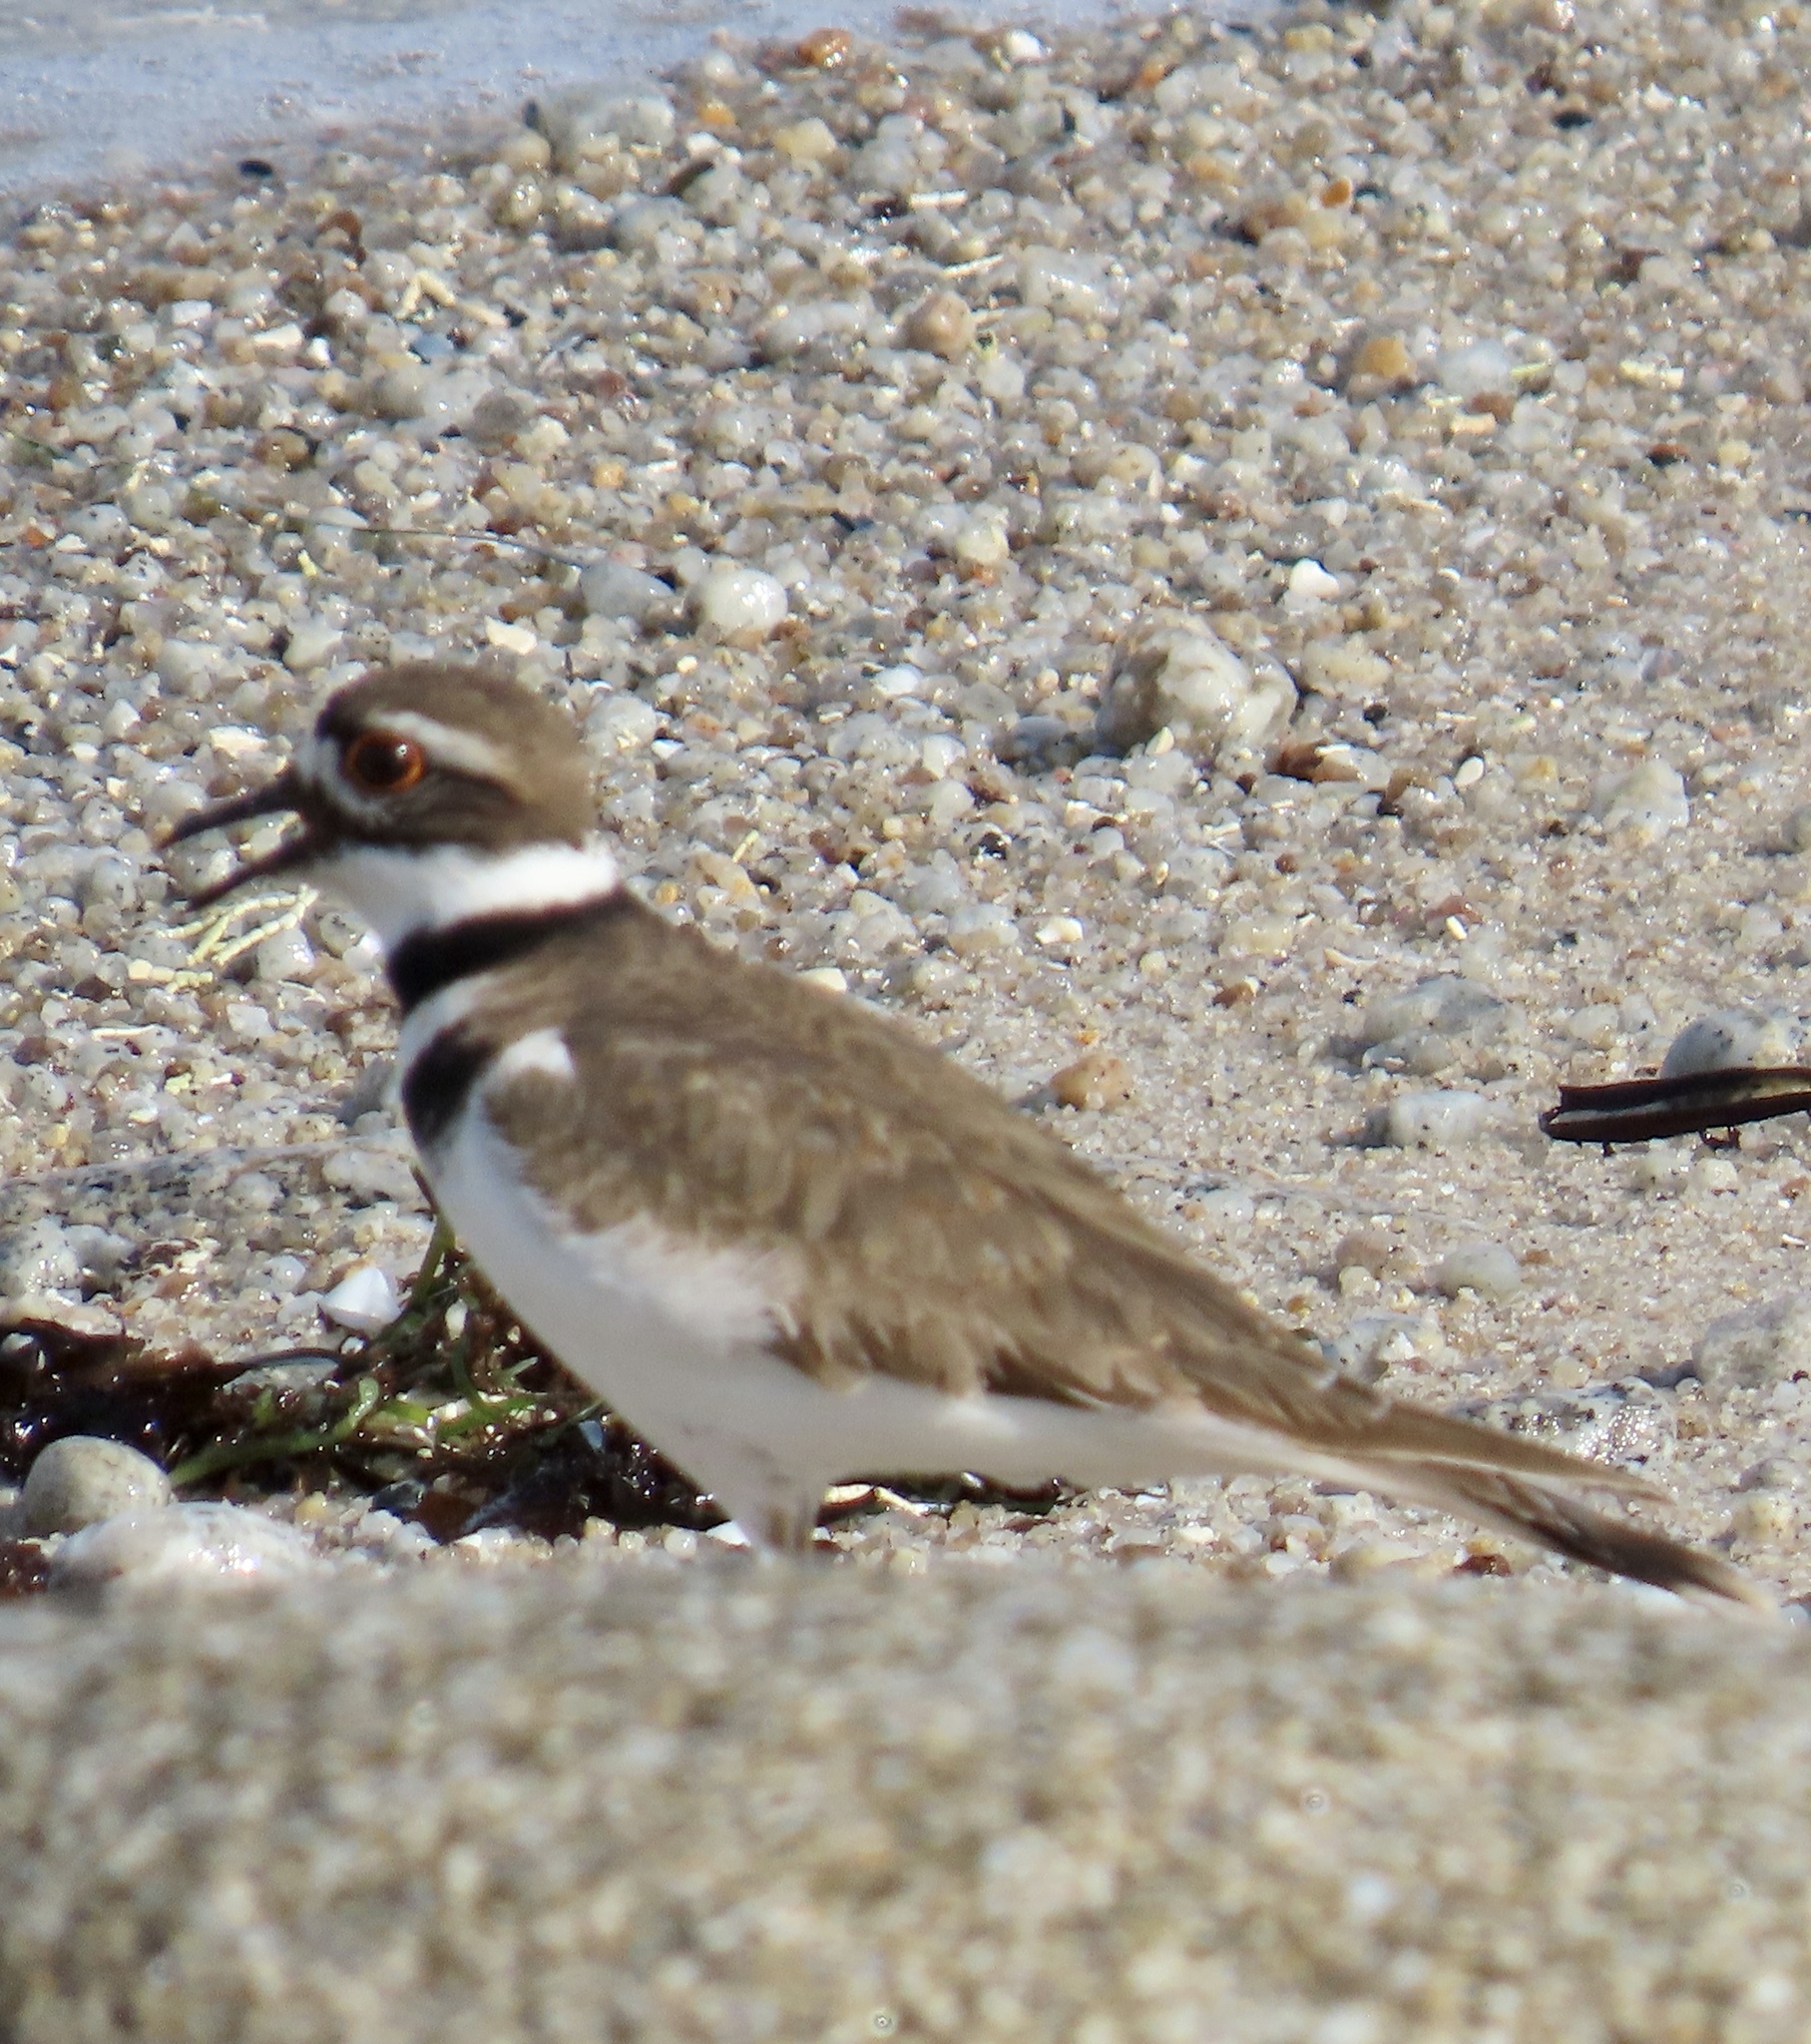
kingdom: Animalia
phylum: Chordata
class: Aves
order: Charadriiformes
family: Charadriidae
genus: Charadrius
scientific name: Charadrius vociferus
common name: Killdeer
